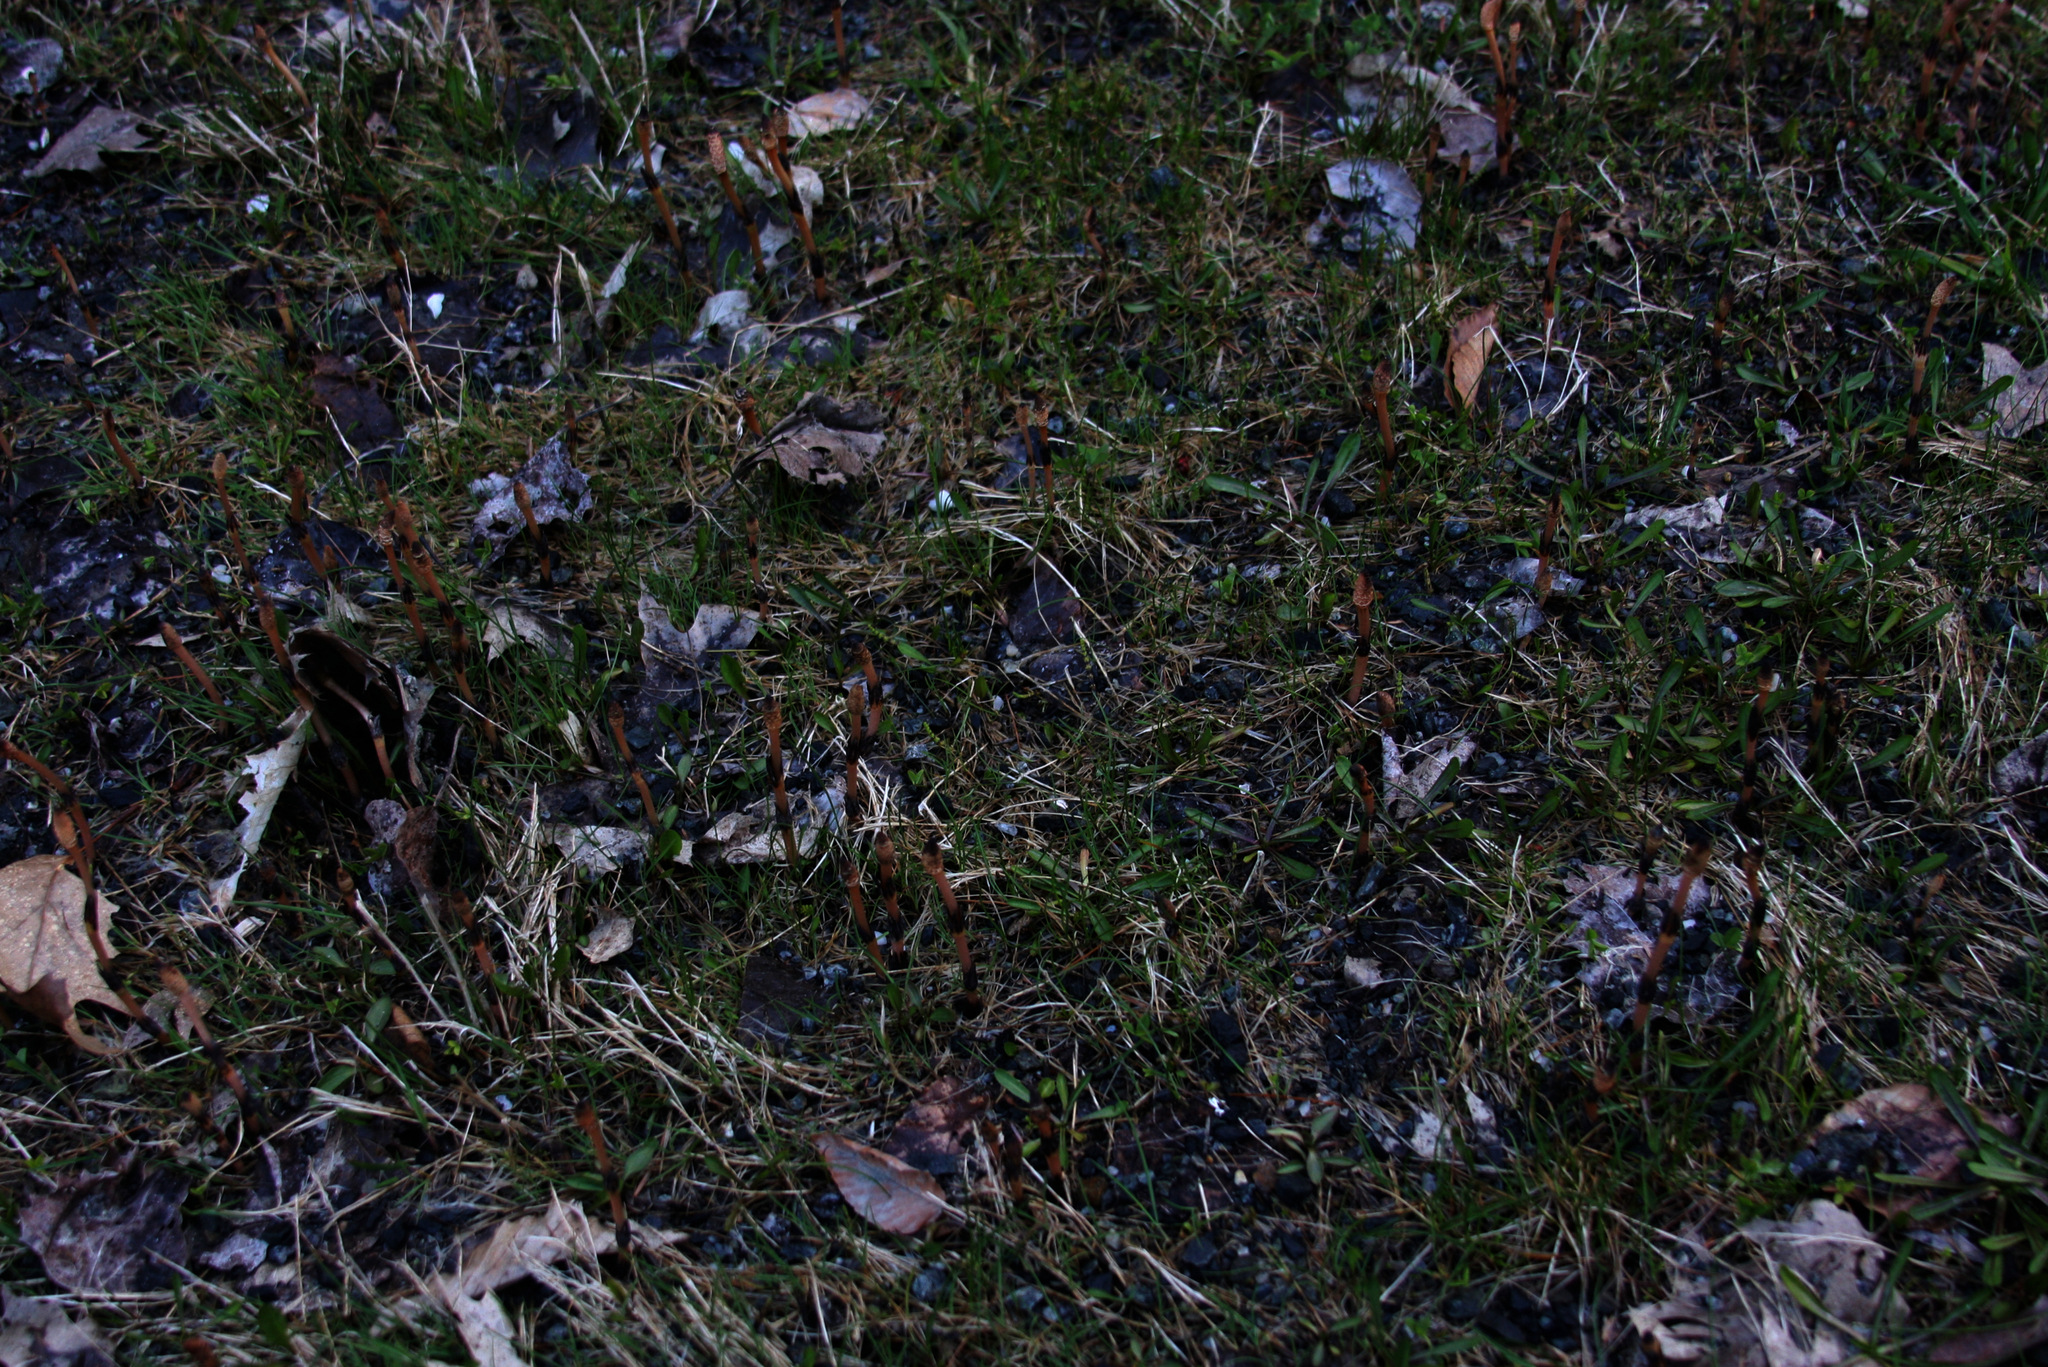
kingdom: Plantae
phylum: Tracheophyta
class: Polypodiopsida
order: Equisetales
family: Equisetaceae
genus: Equisetum
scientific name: Equisetum arvense
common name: Field horsetail
